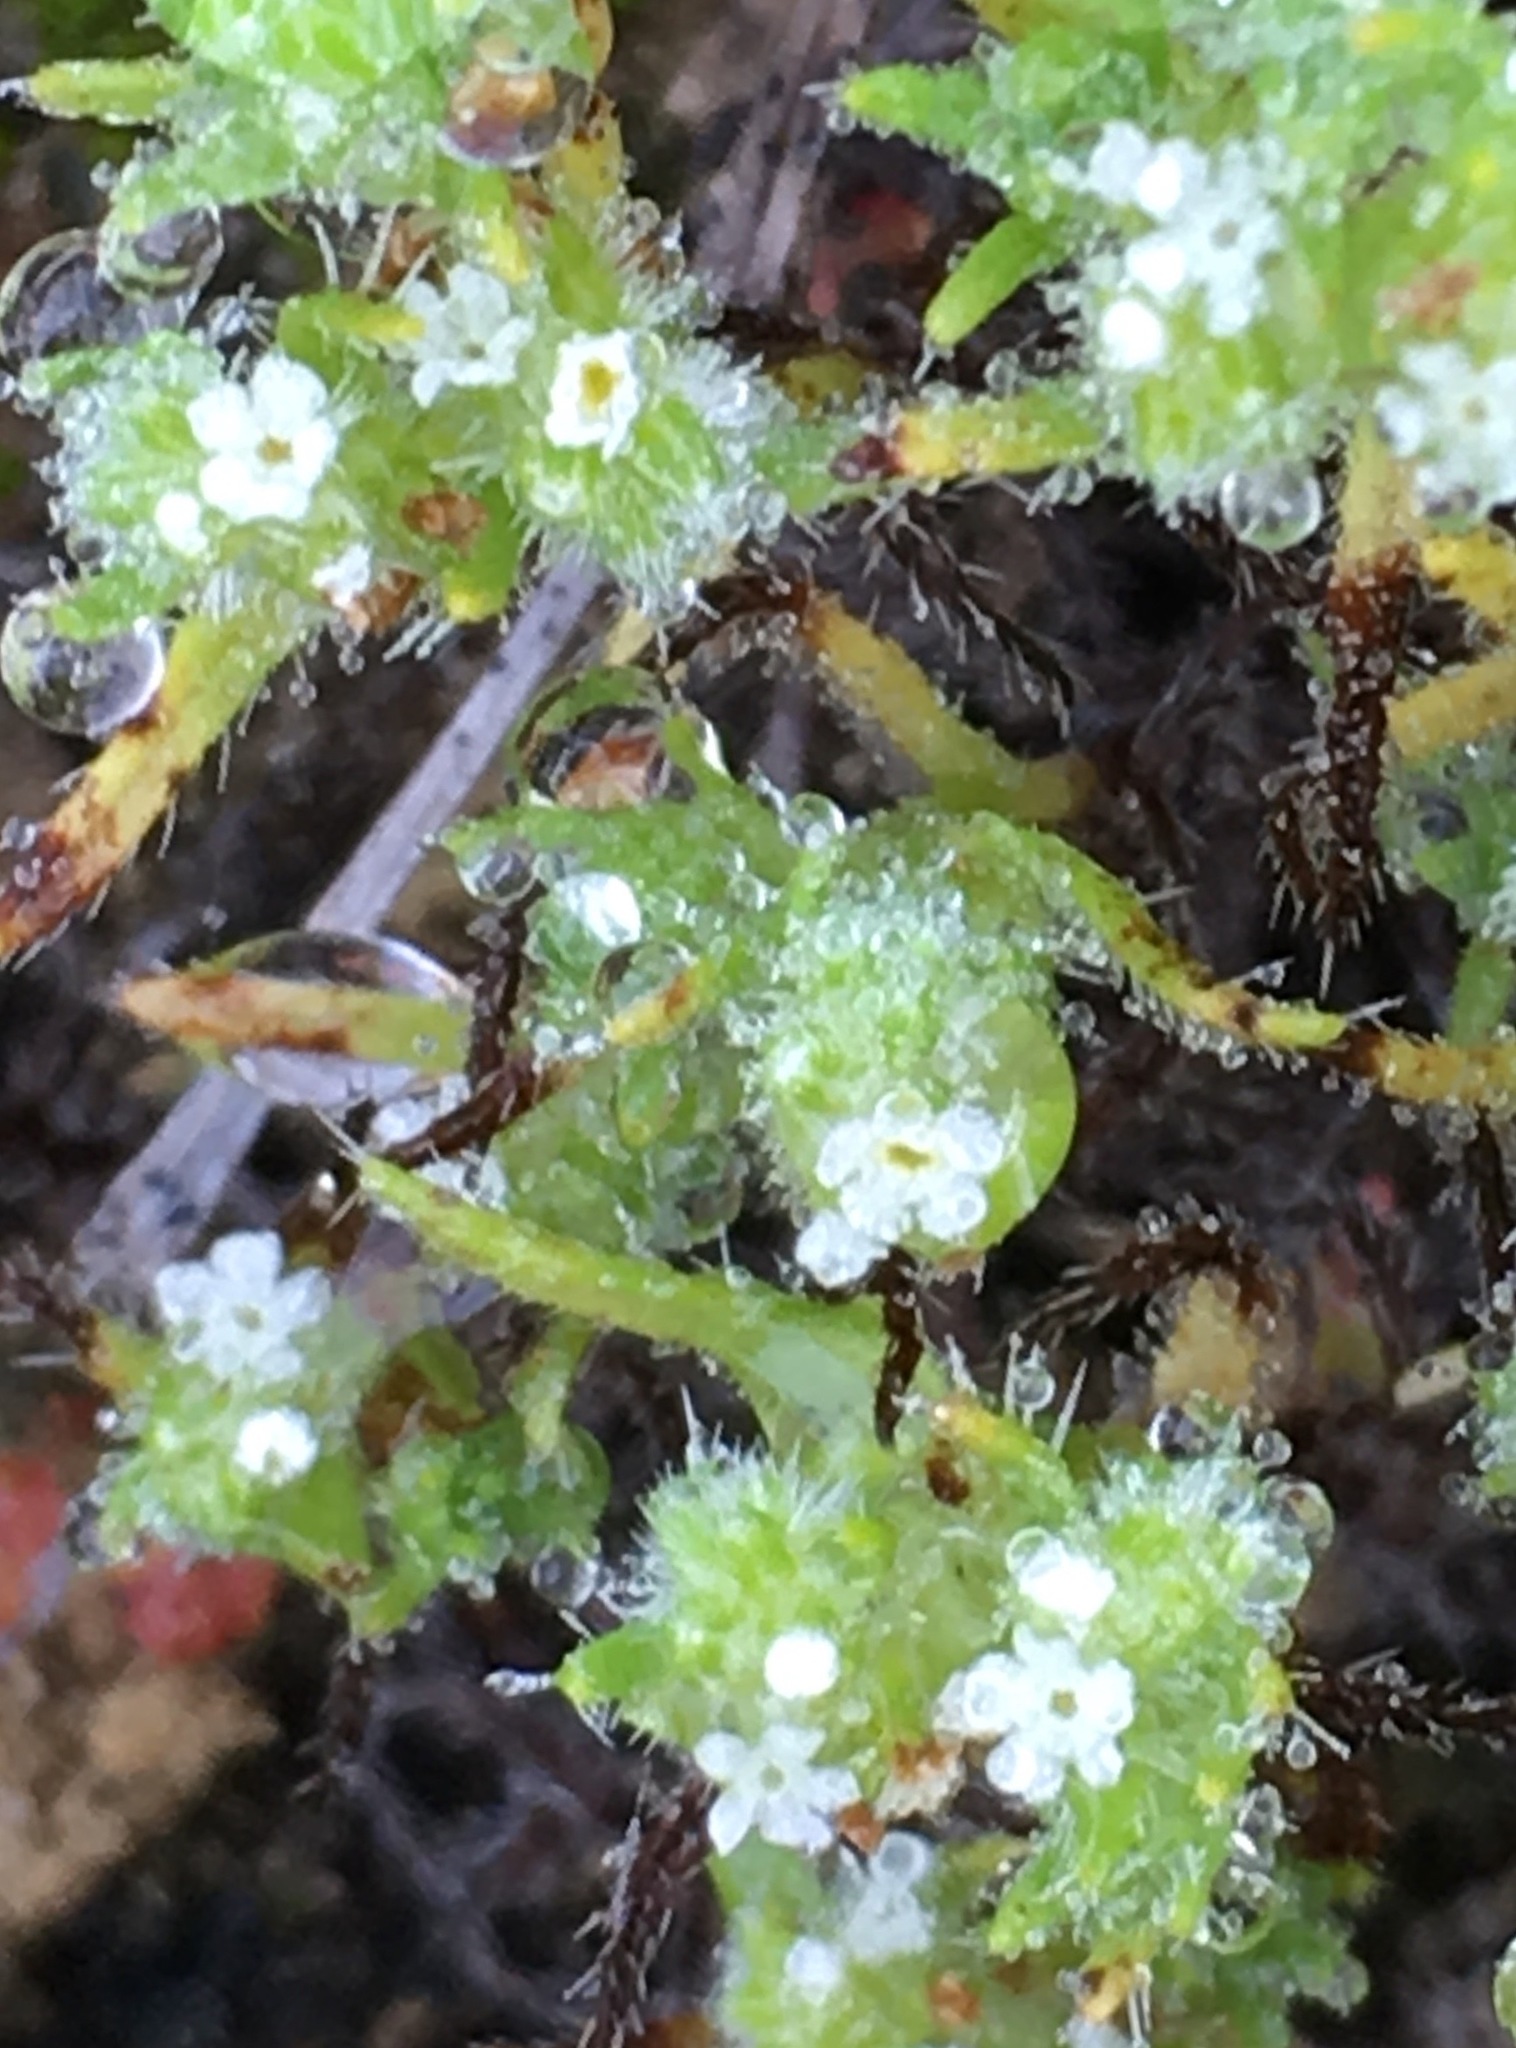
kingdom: Plantae
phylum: Tracheophyta
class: Magnoliopsida
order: Boraginales
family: Boraginaceae
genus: Cryptantha
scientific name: Cryptantha maritima
